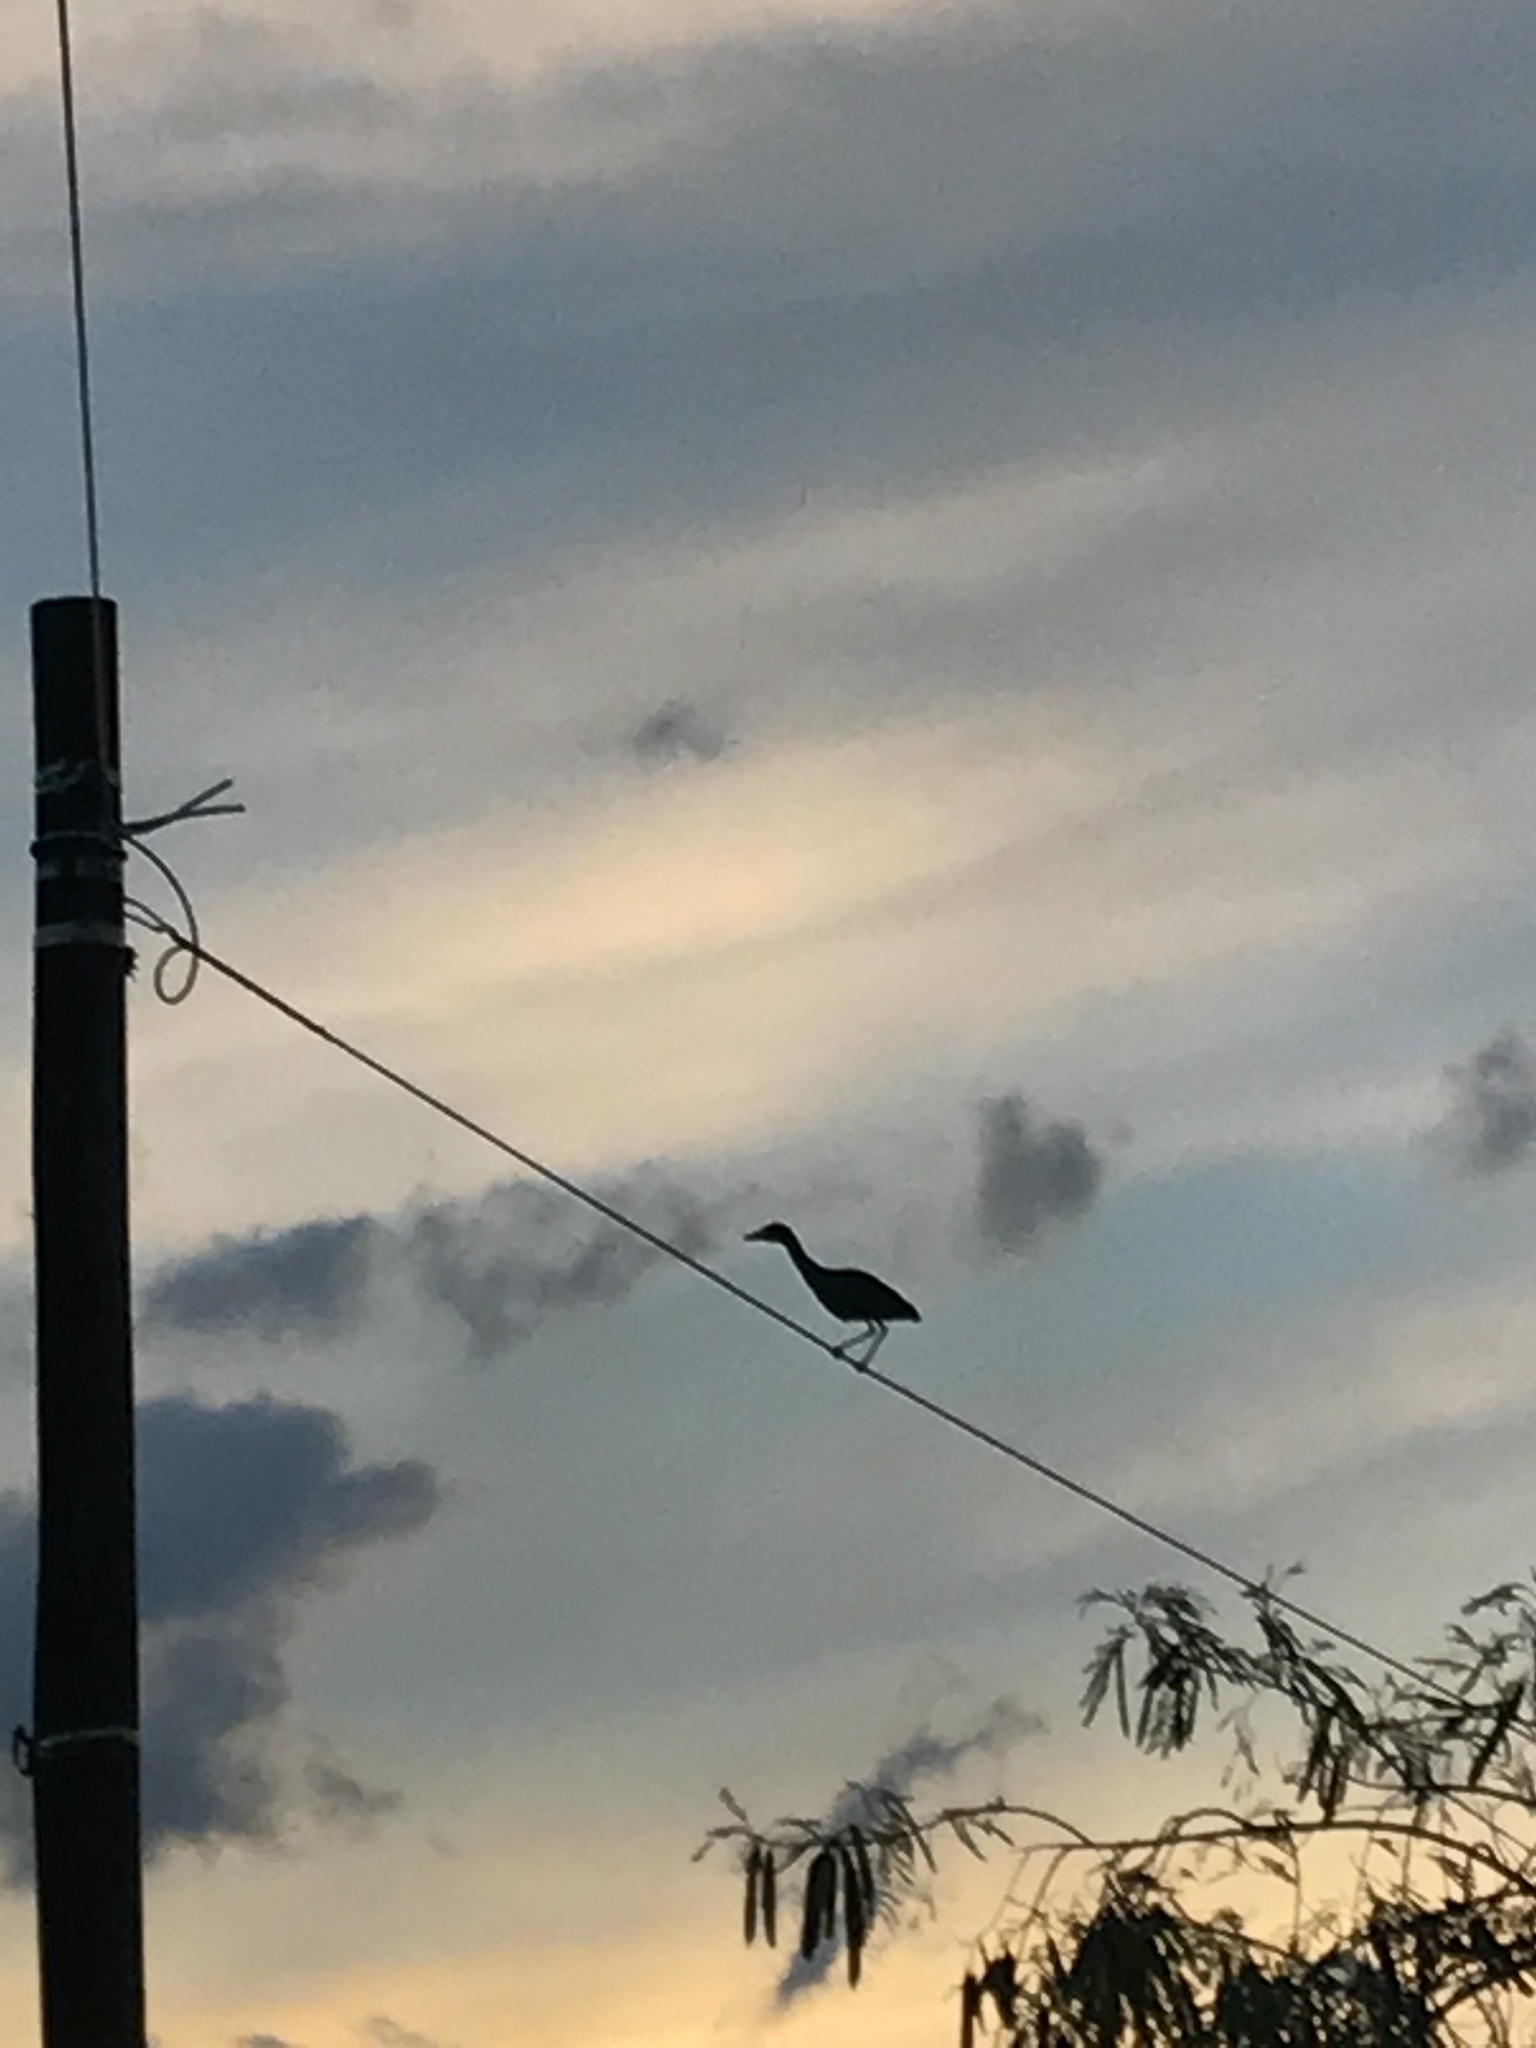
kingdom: Animalia
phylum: Chordata
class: Aves
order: Pelecaniformes
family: Ardeidae
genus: Nyctanassa
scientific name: Nyctanassa violacea
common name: Yellow-crowned night heron
